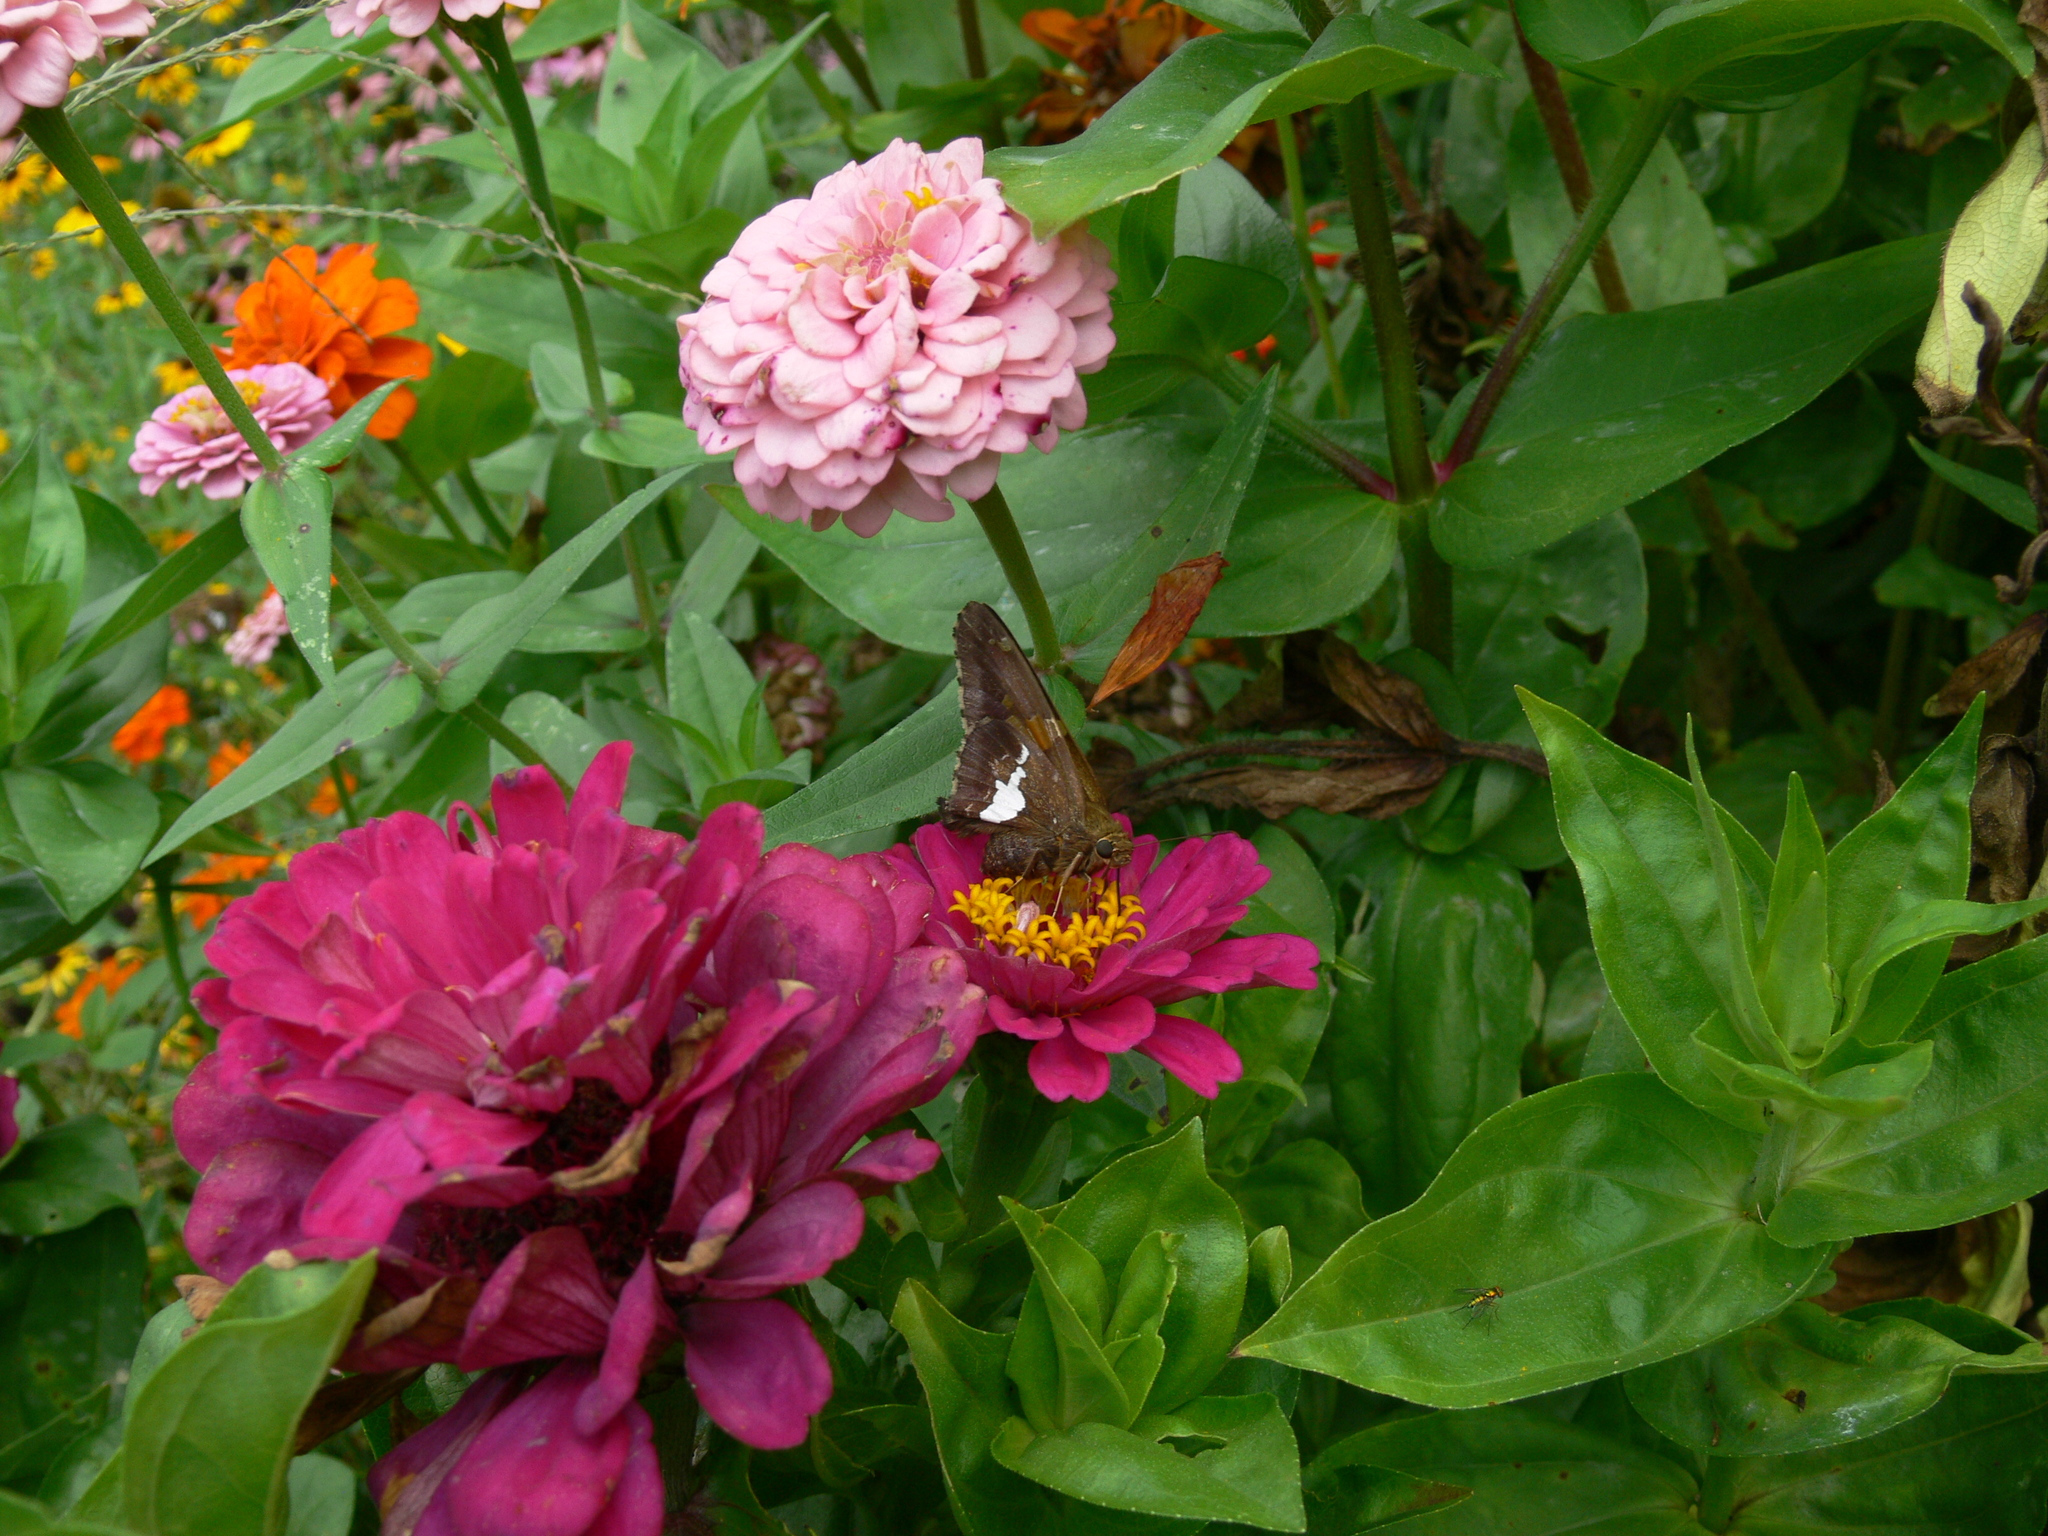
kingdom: Animalia
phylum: Arthropoda
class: Insecta
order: Lepidoptera
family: Hesperiidae
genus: Epargyreus
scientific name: Epargyreus clarus
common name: Silver-spotted skipper
